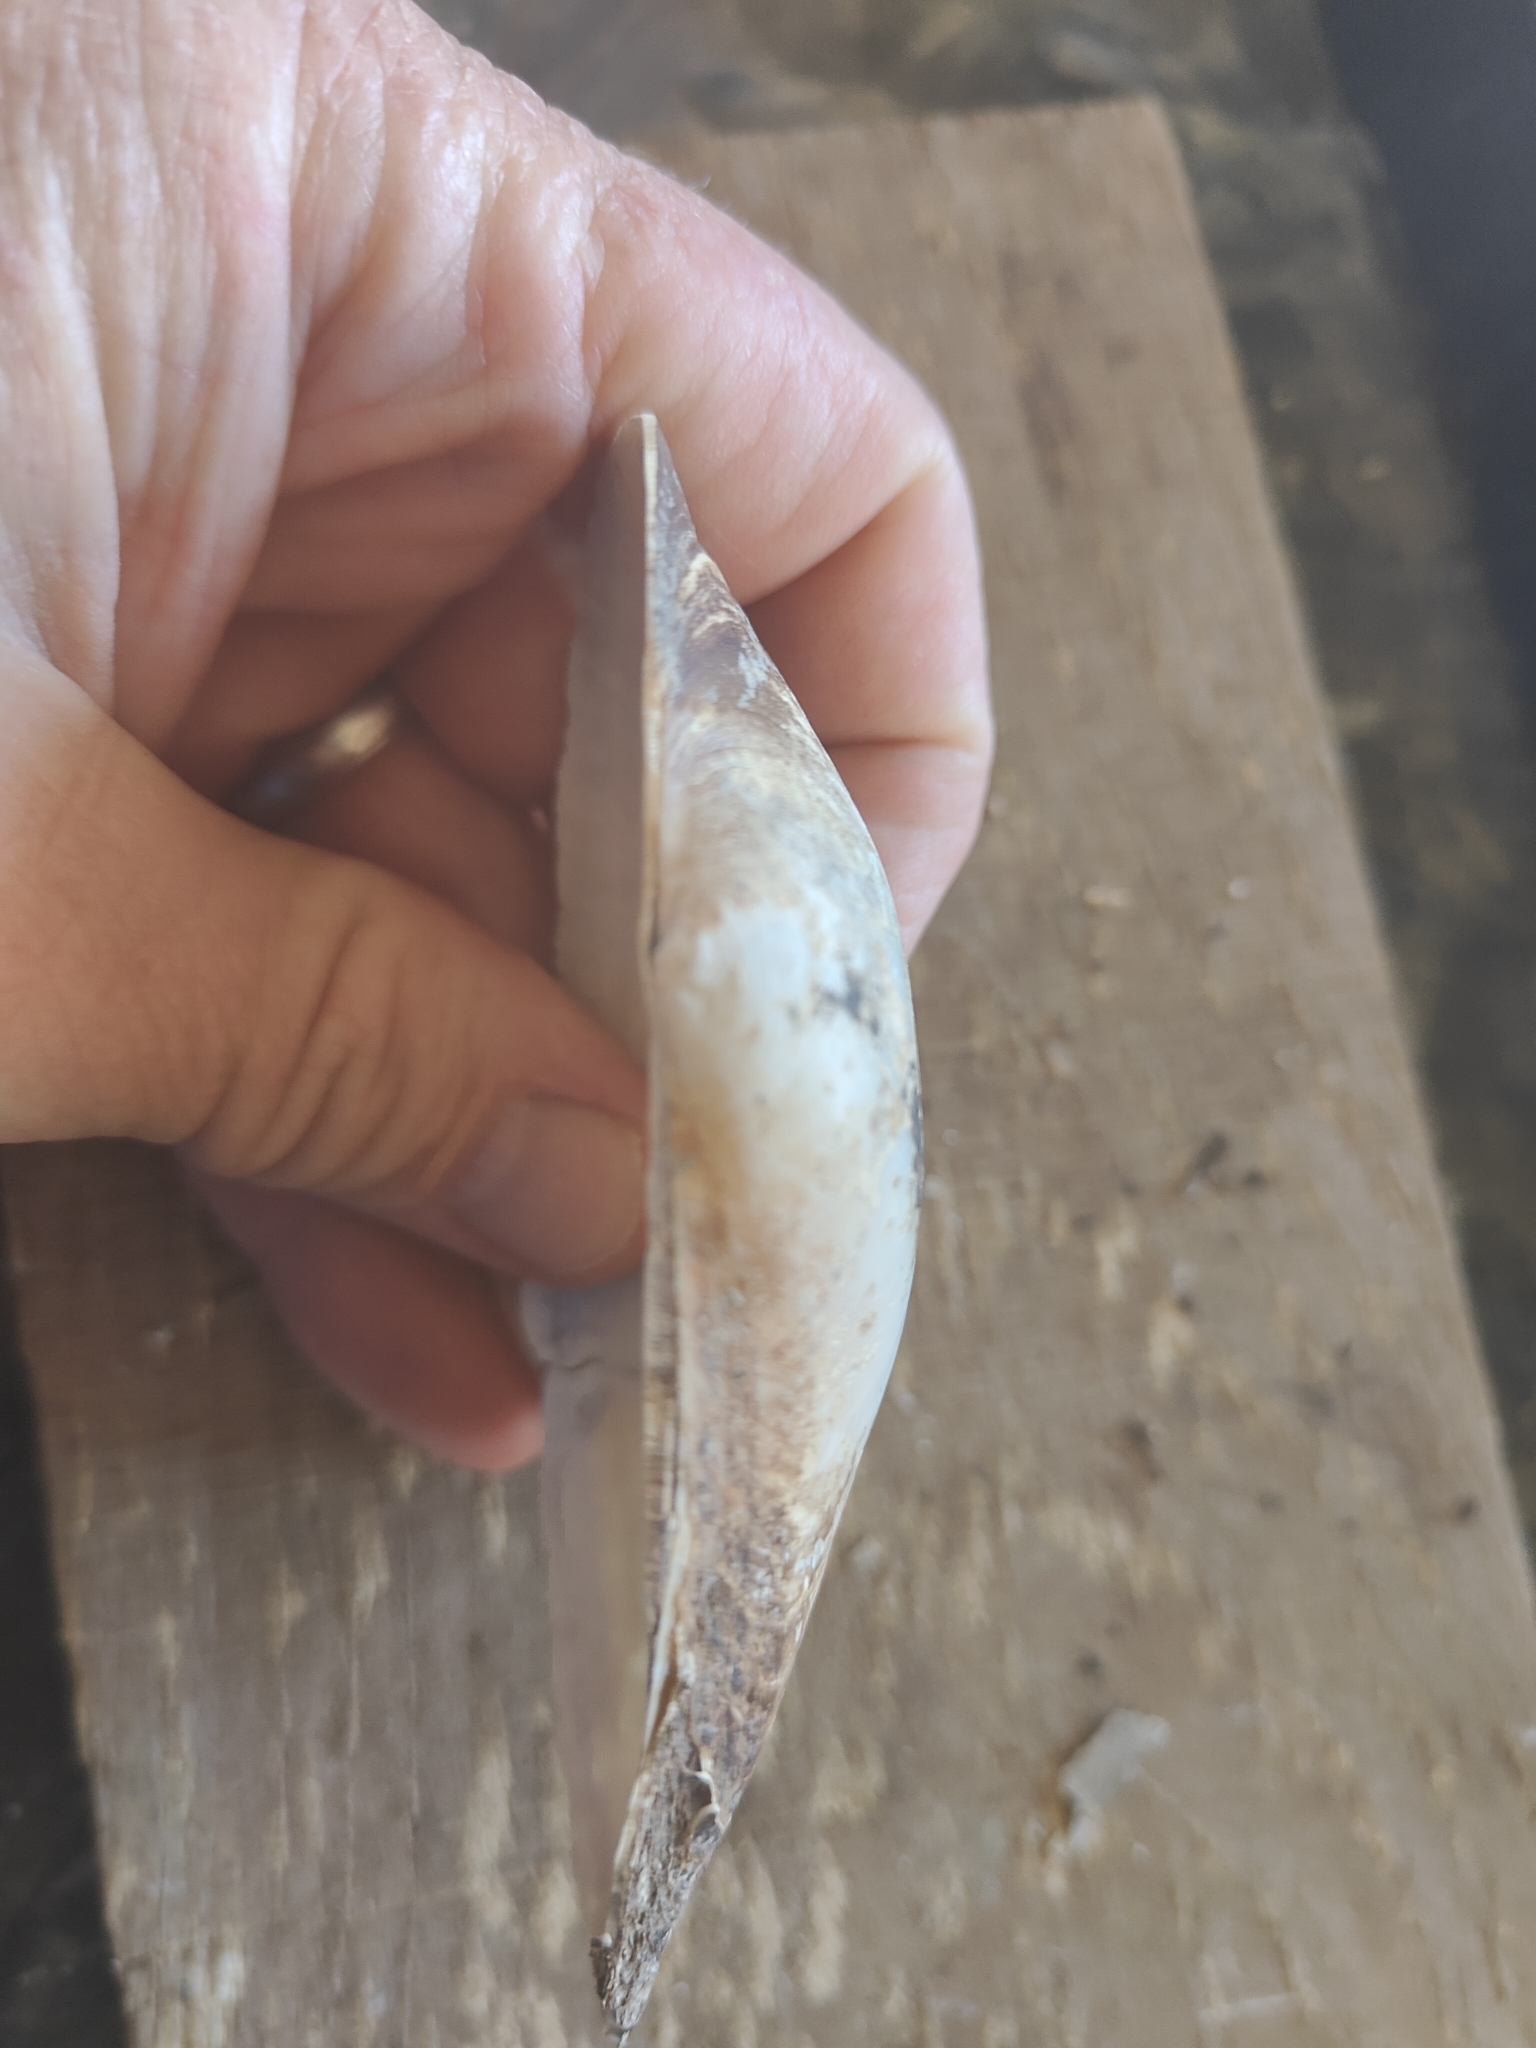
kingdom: Animalia
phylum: Mollusca
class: Bivalvia
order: Unionida
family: Unionidae
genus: Pyganodon
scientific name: Pyganodon grandis
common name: Giant floater
